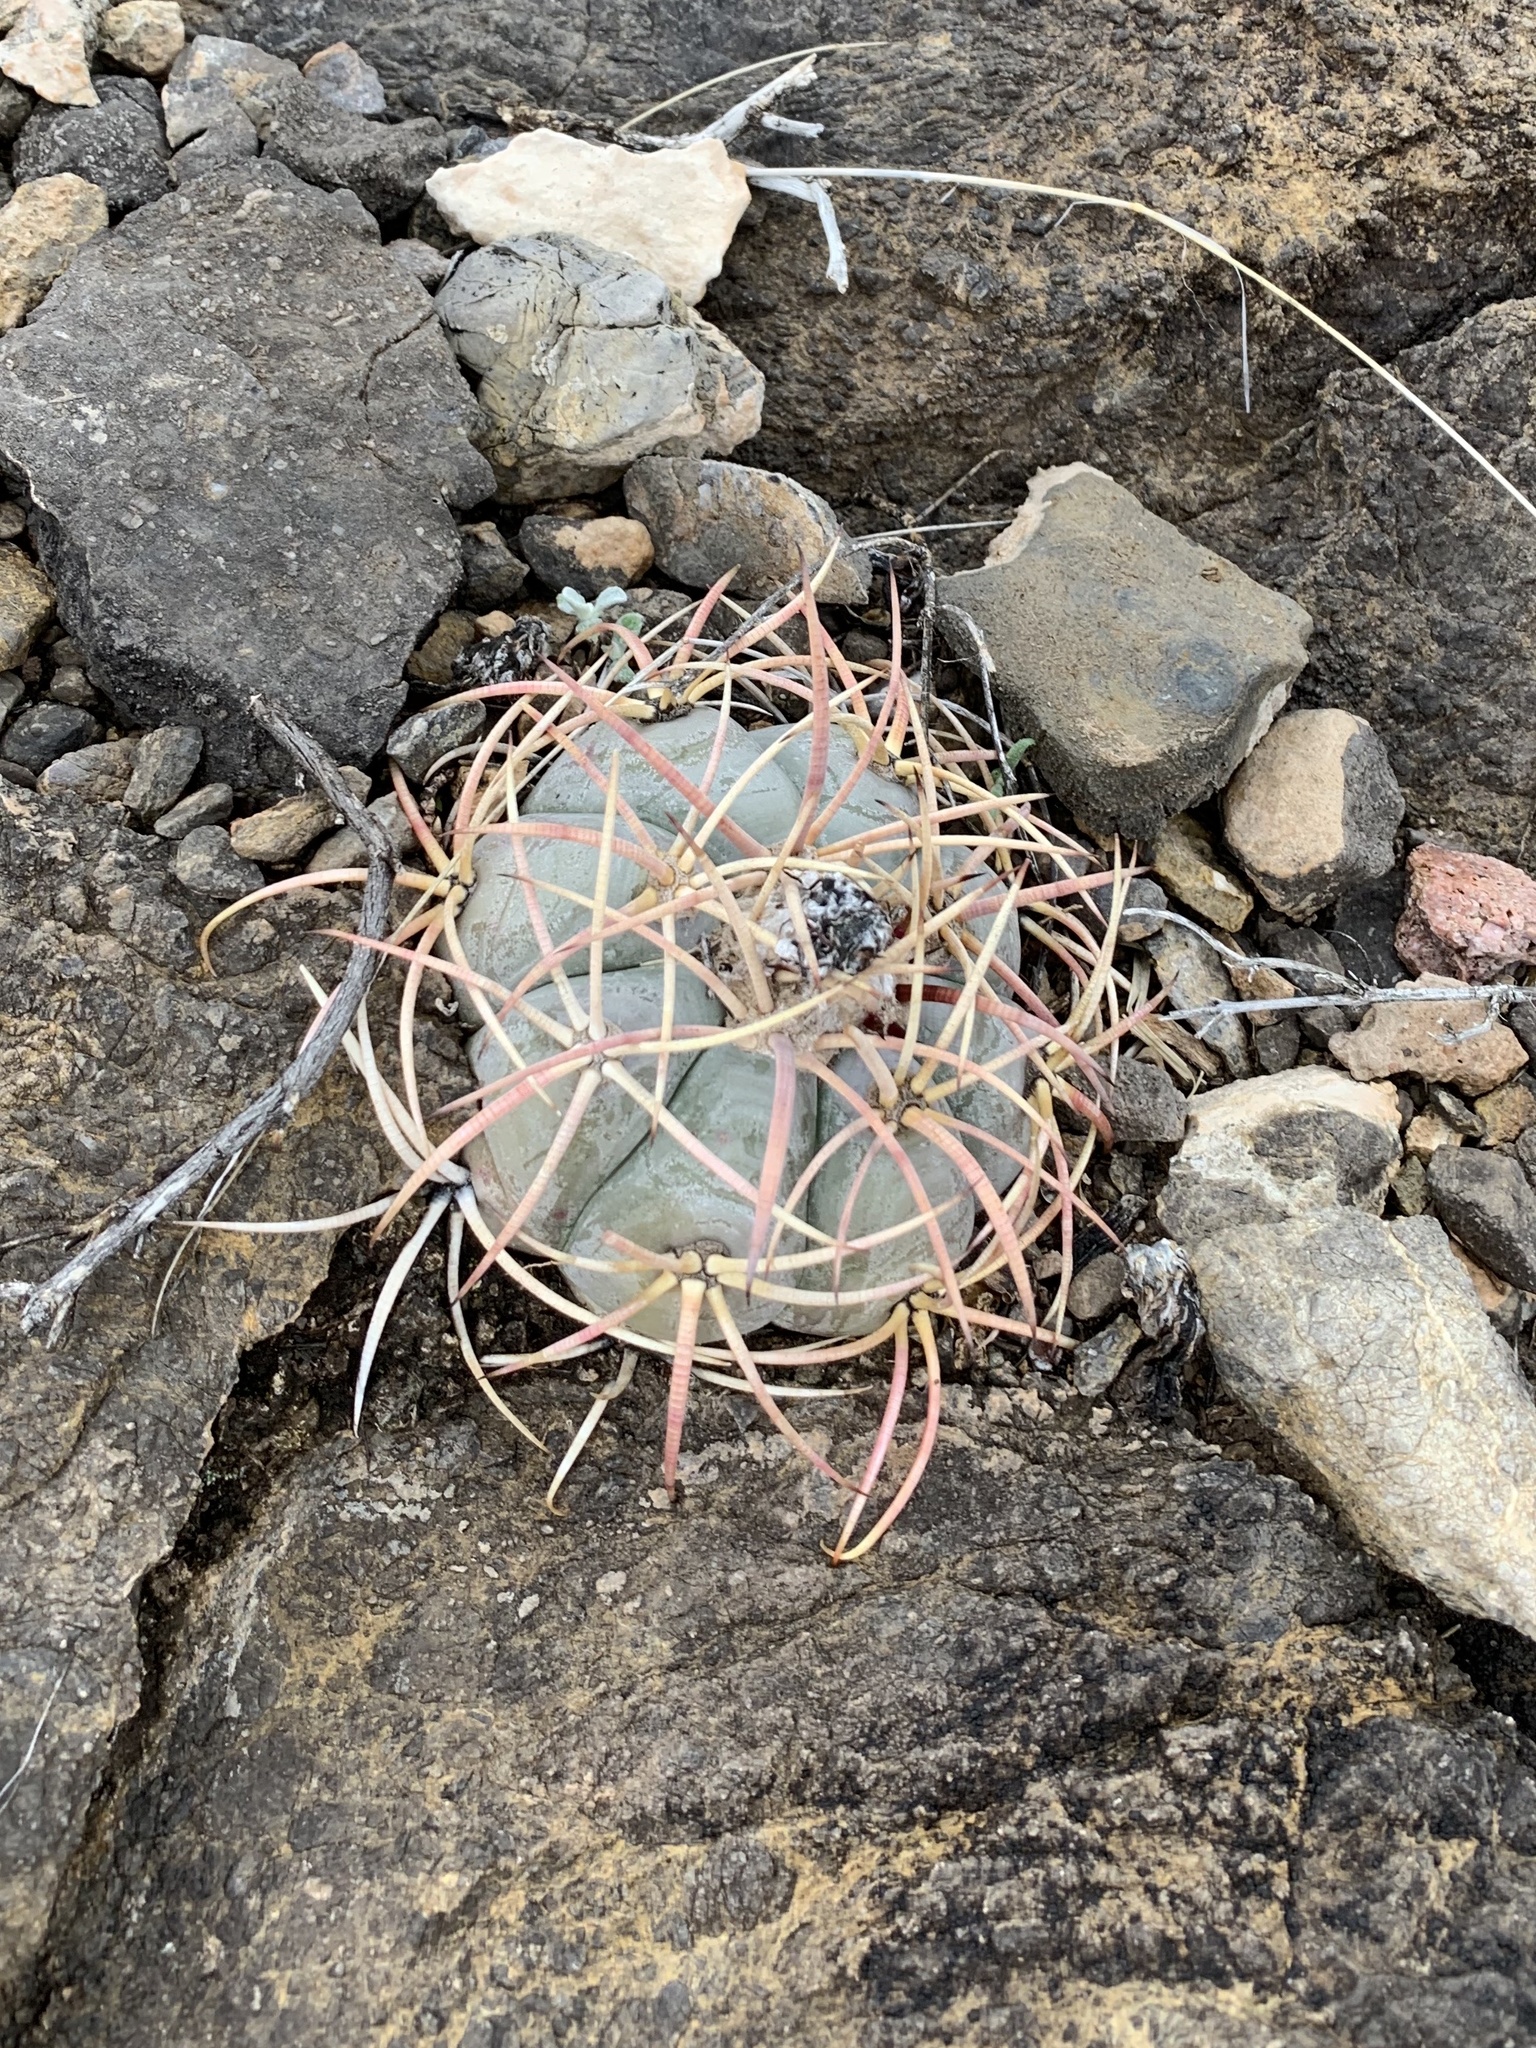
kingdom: Plantae
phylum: Tracheophyta
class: Magnoliopsida
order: Caryophyllales
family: Cactaceae
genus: Echinocactus
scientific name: Echinocactus horizonthalonius
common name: Devilshead
